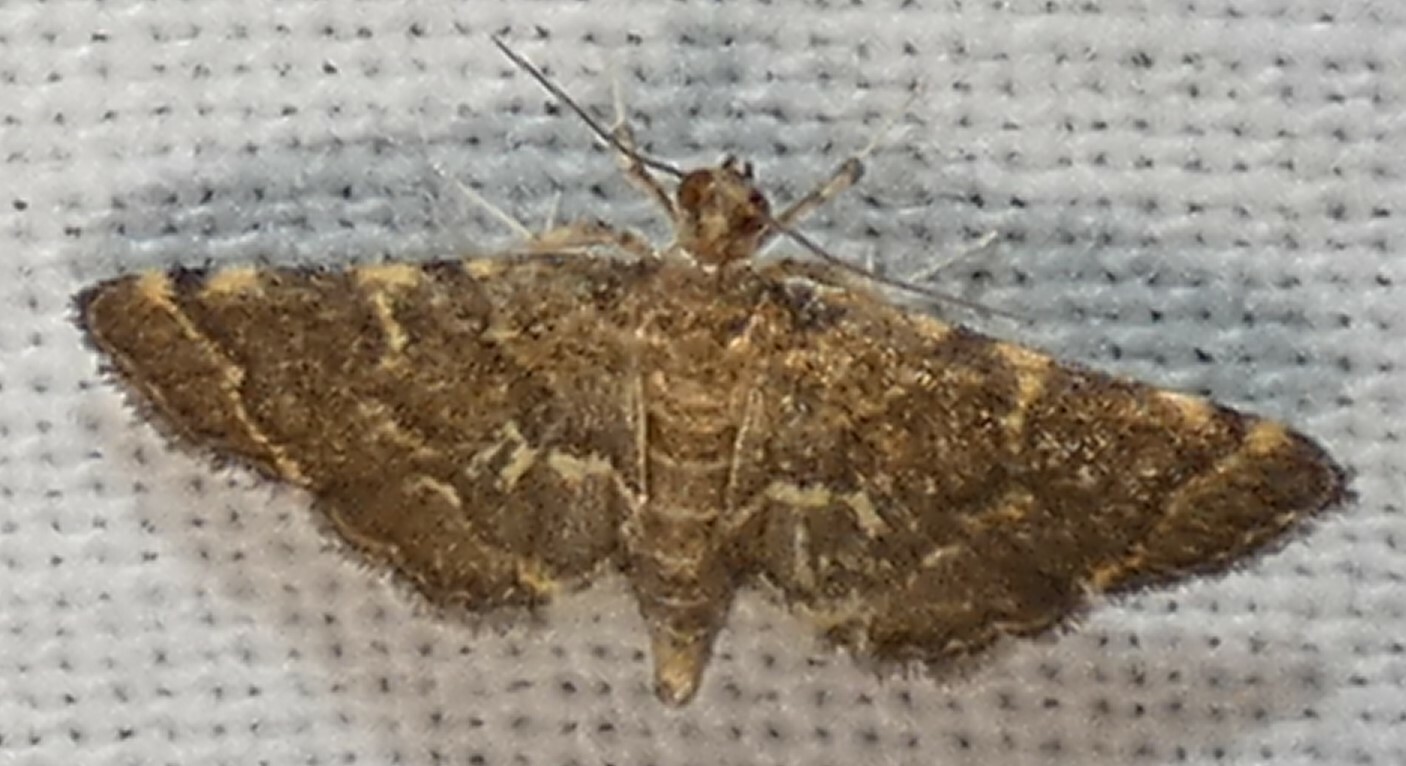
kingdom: Animalia
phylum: Arthropoda
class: Insecta
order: Lepidoptera
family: Crambidae
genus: Anageshna
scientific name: Anageshna primordialis
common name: Yellow-spotted webworm moth
